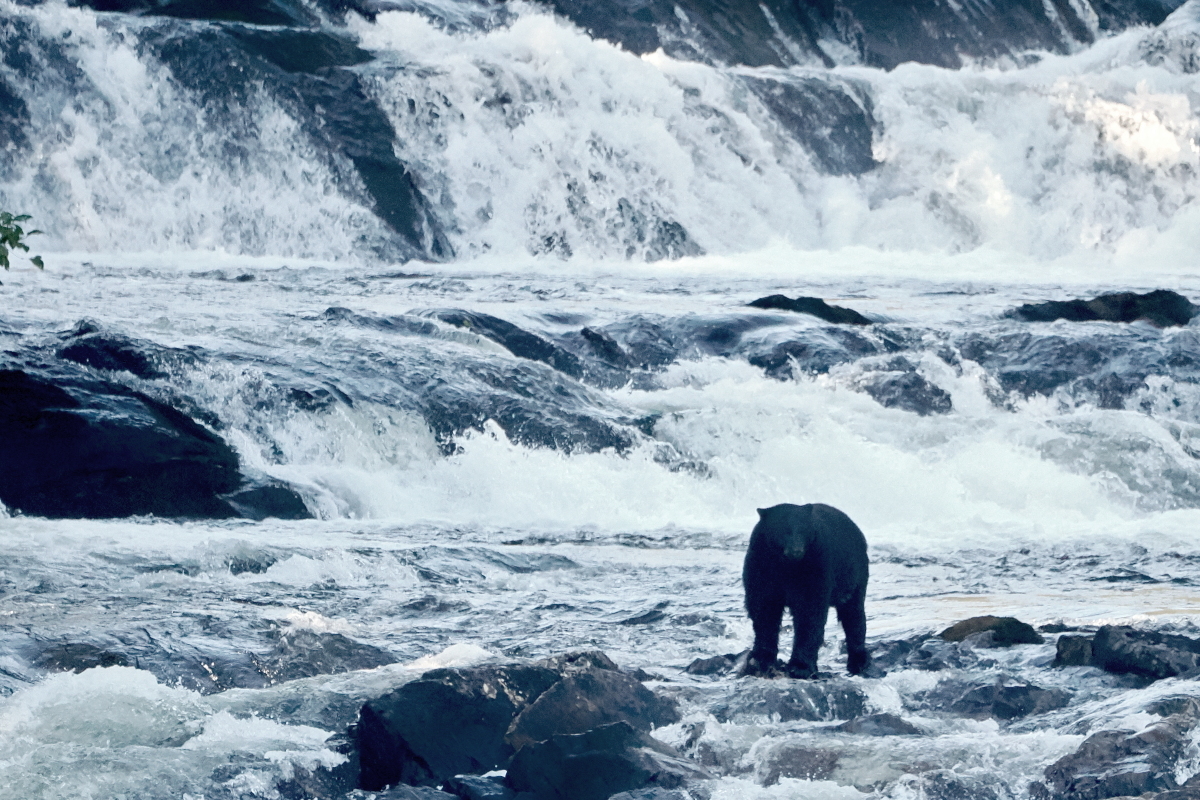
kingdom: Animalia
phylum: Chordata
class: Mammalia
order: Carnivora
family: Ursidae
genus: Ursus
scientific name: Ursus americanus
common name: American black bear
